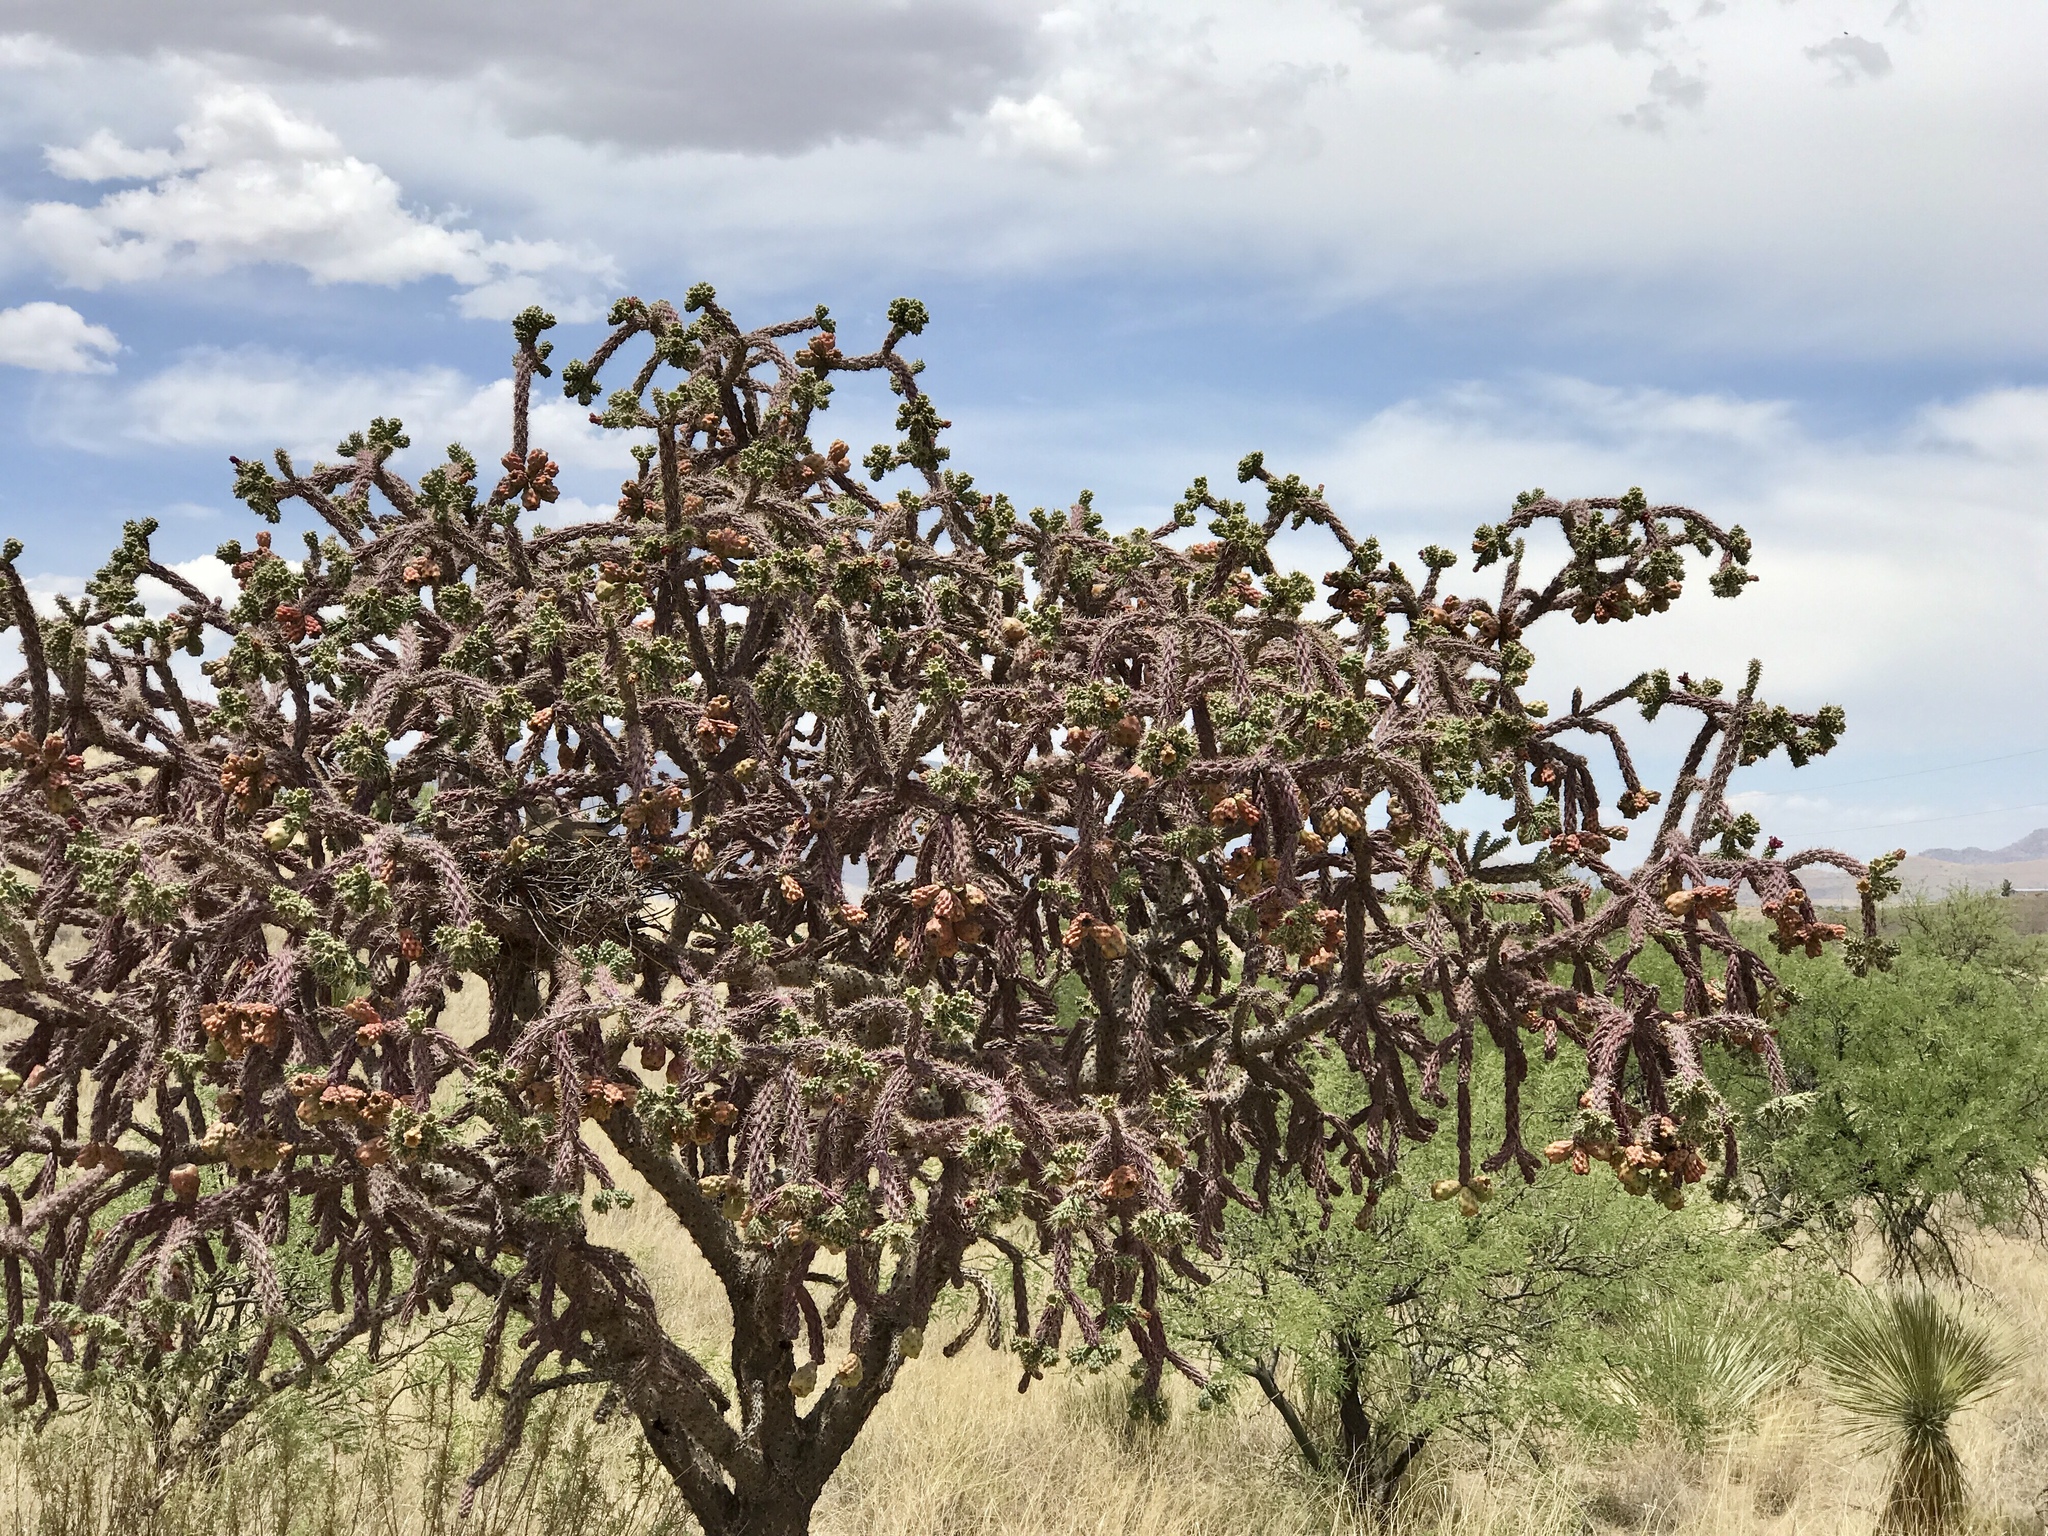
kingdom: Plantae
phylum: Tracheophyta
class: Magnoliopsida
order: Caryophyllales
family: Cactaceae
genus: Cylindropuntia
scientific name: Cylindropuntia thurberi
